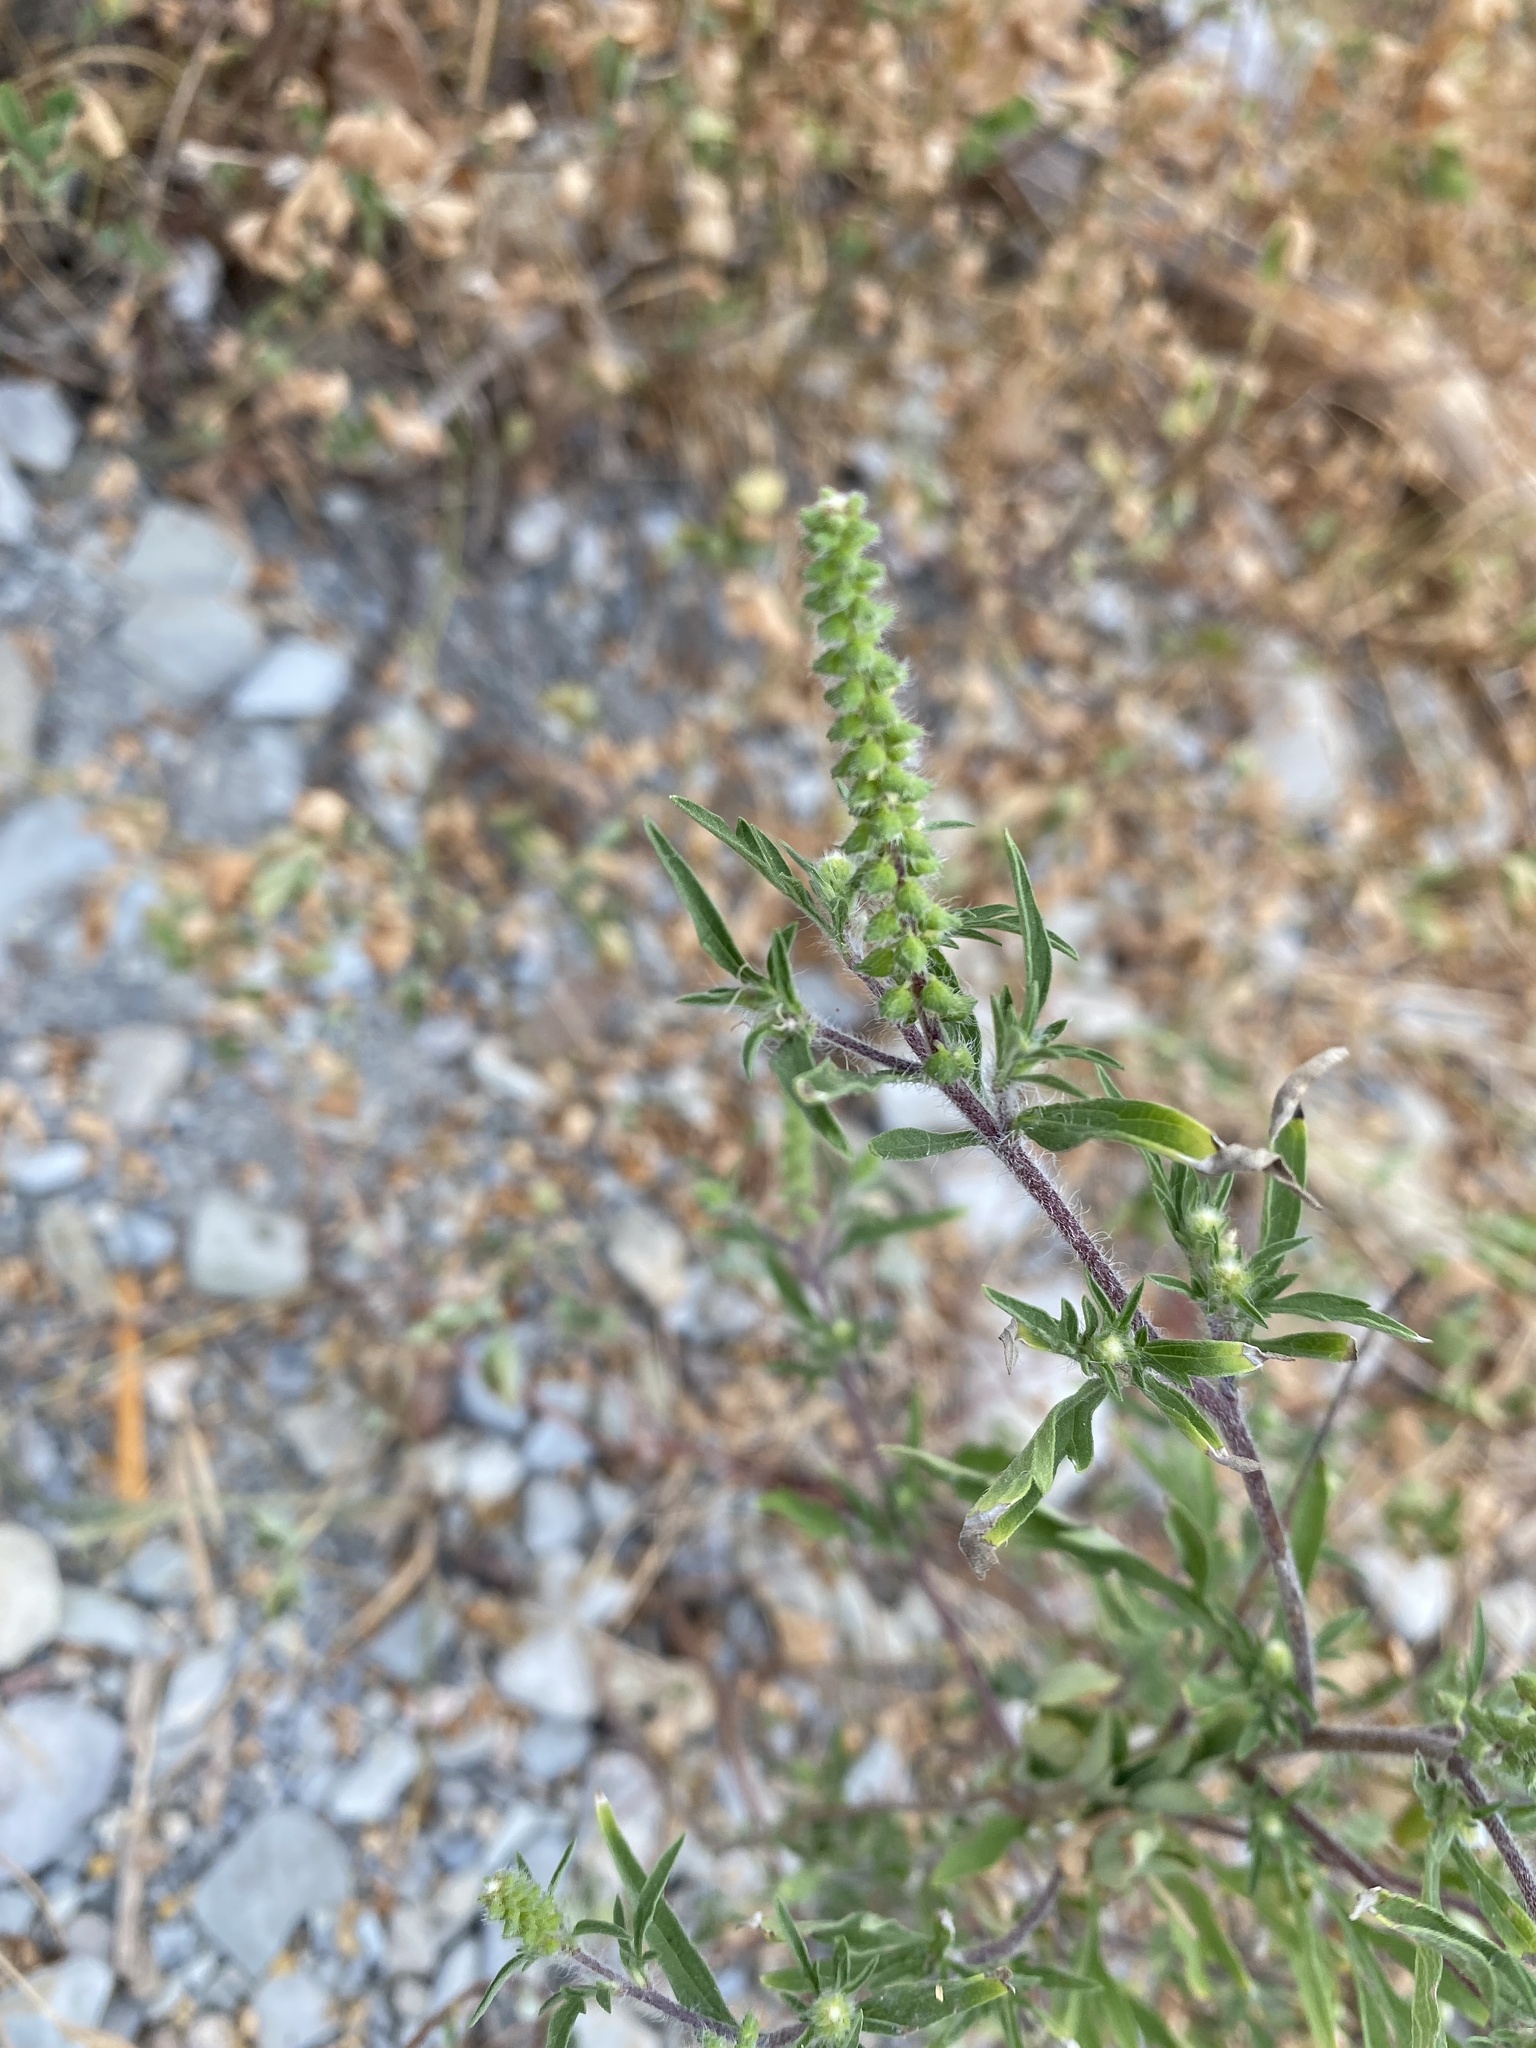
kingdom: Plantae
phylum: Tracheophyta
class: Magnoliopsida
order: Asterales
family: Asteraceae
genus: Ambrosia
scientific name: Ambrosia artemisiifolia
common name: Annual ragweed
